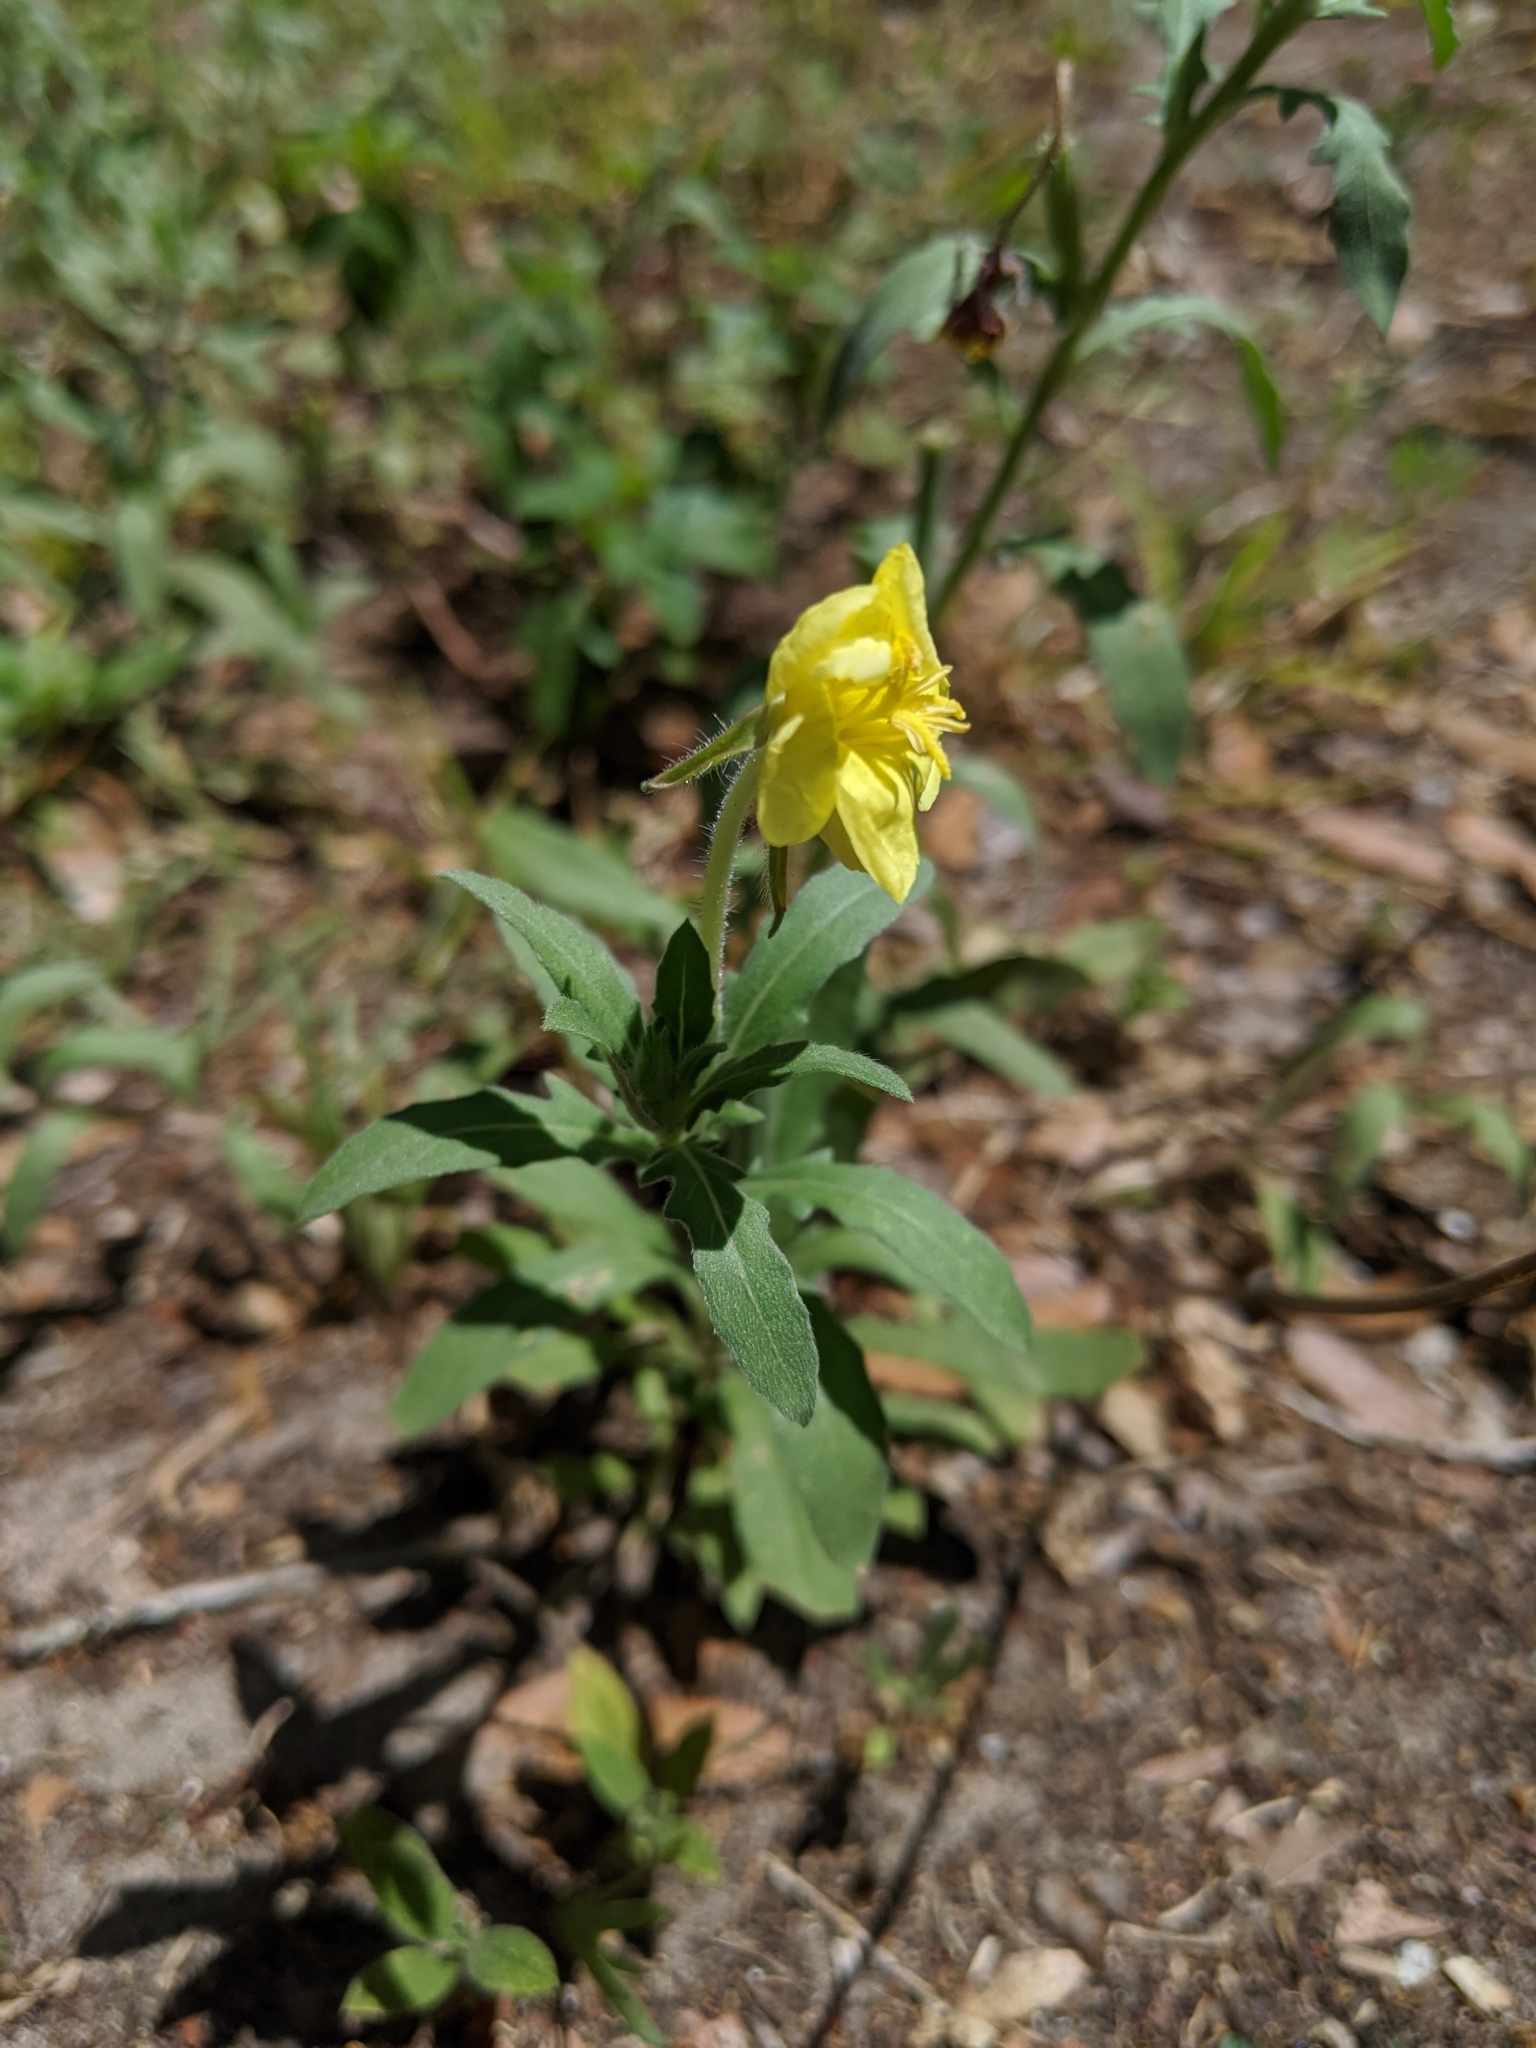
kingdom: Plantae
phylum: Tracheophyta
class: Magnoliopsida
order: Myrtales
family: Onagraceae
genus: Oenothera
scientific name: Oenothera laciniata
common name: Cut-leaved evening-primrose
